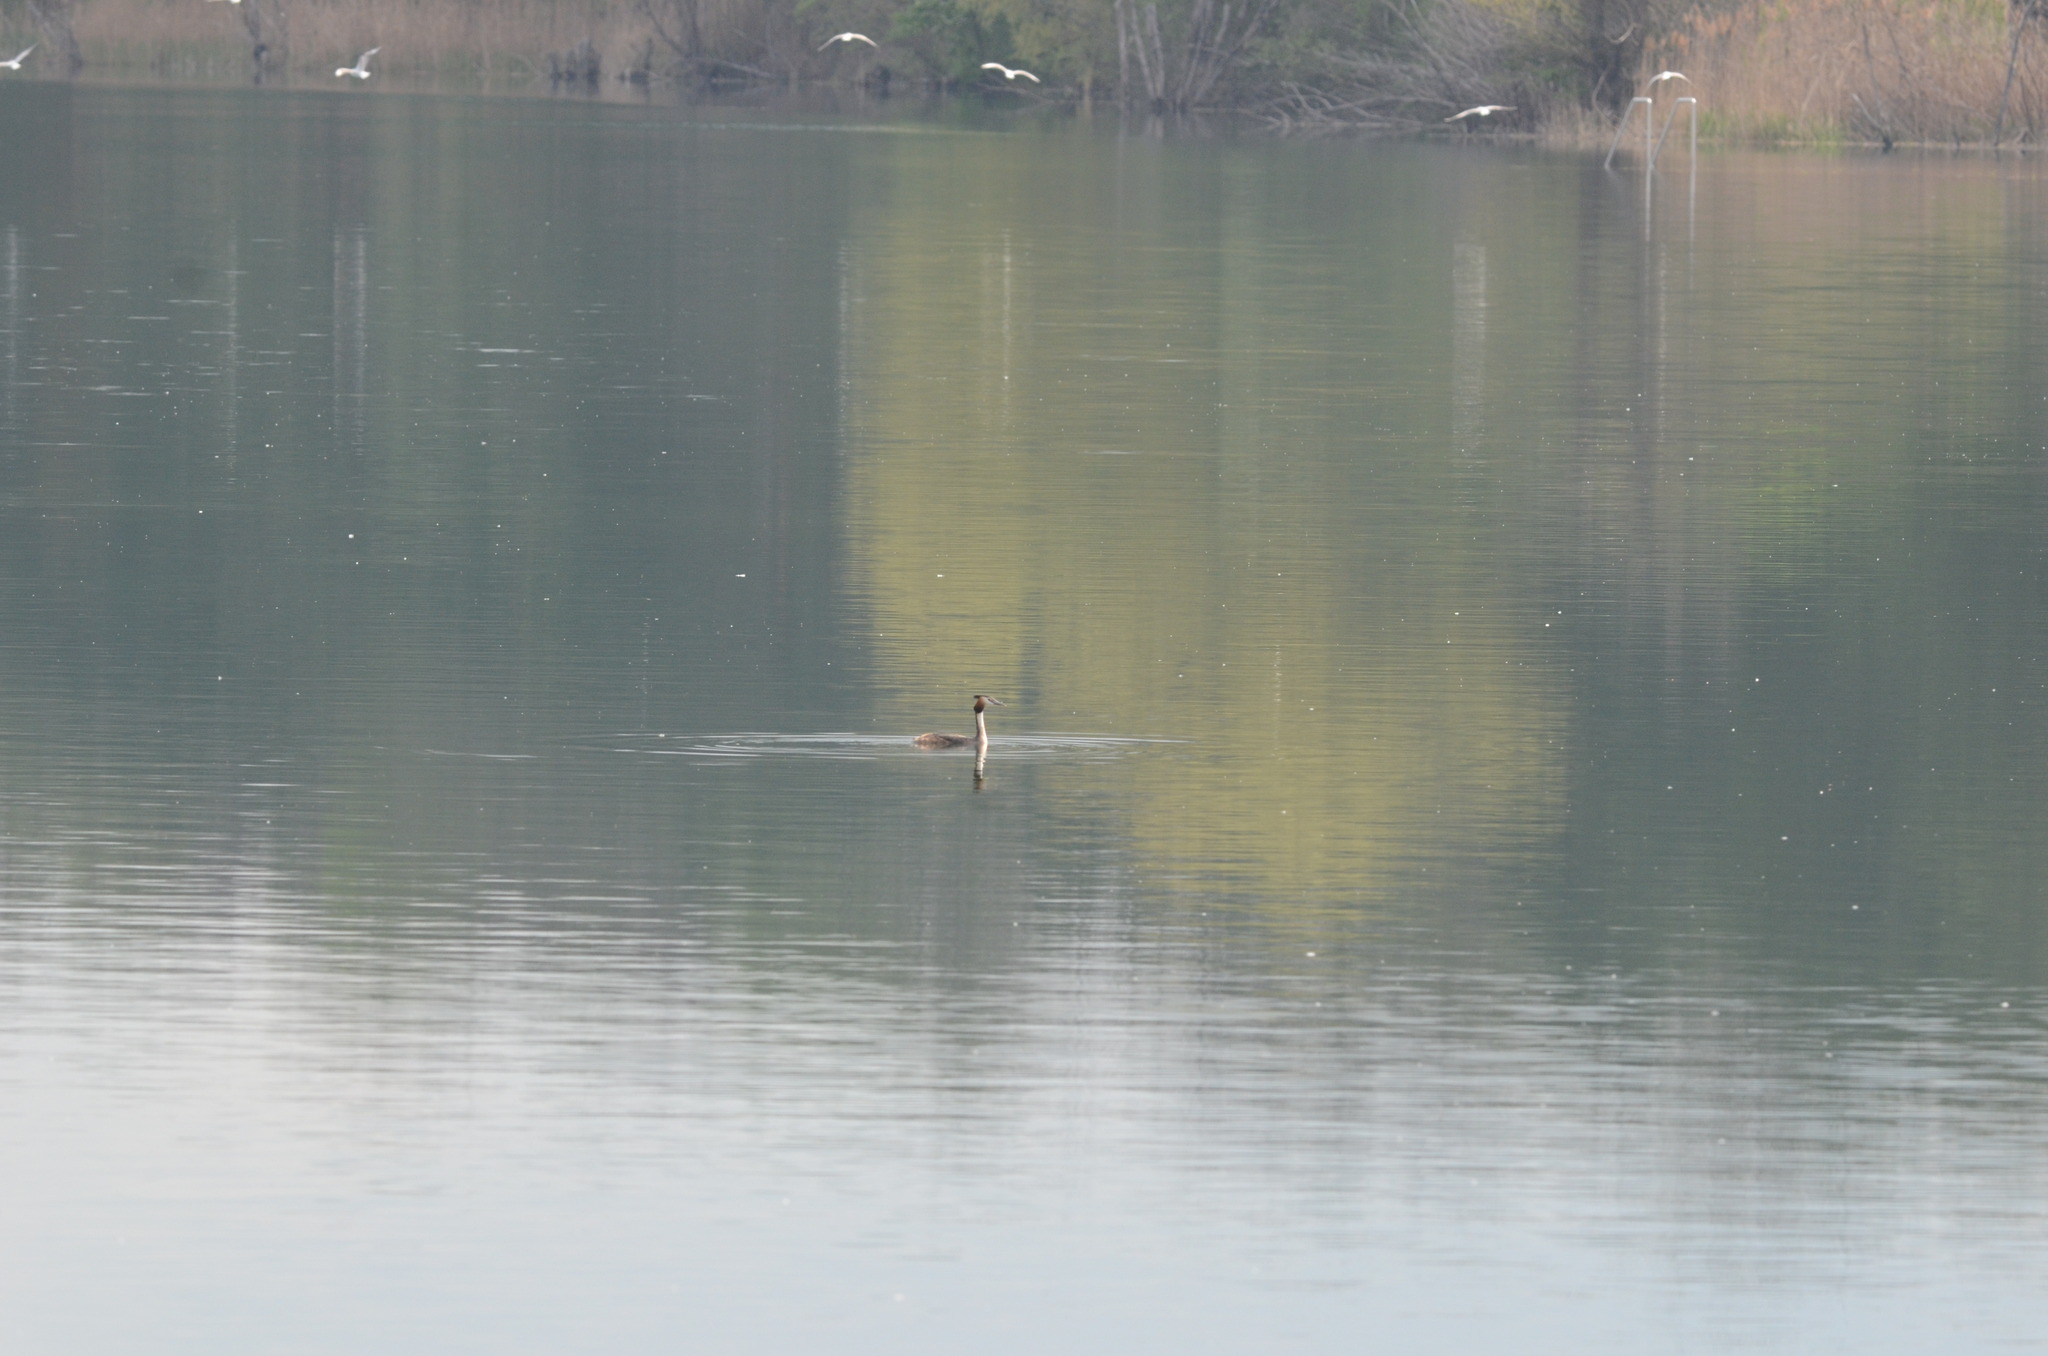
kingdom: Animalia
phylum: Chordata
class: Aves
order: Podicipediformes
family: Podicipedidae
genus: Podiceps
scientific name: Podiceps cristatus
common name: Great crested grebe
